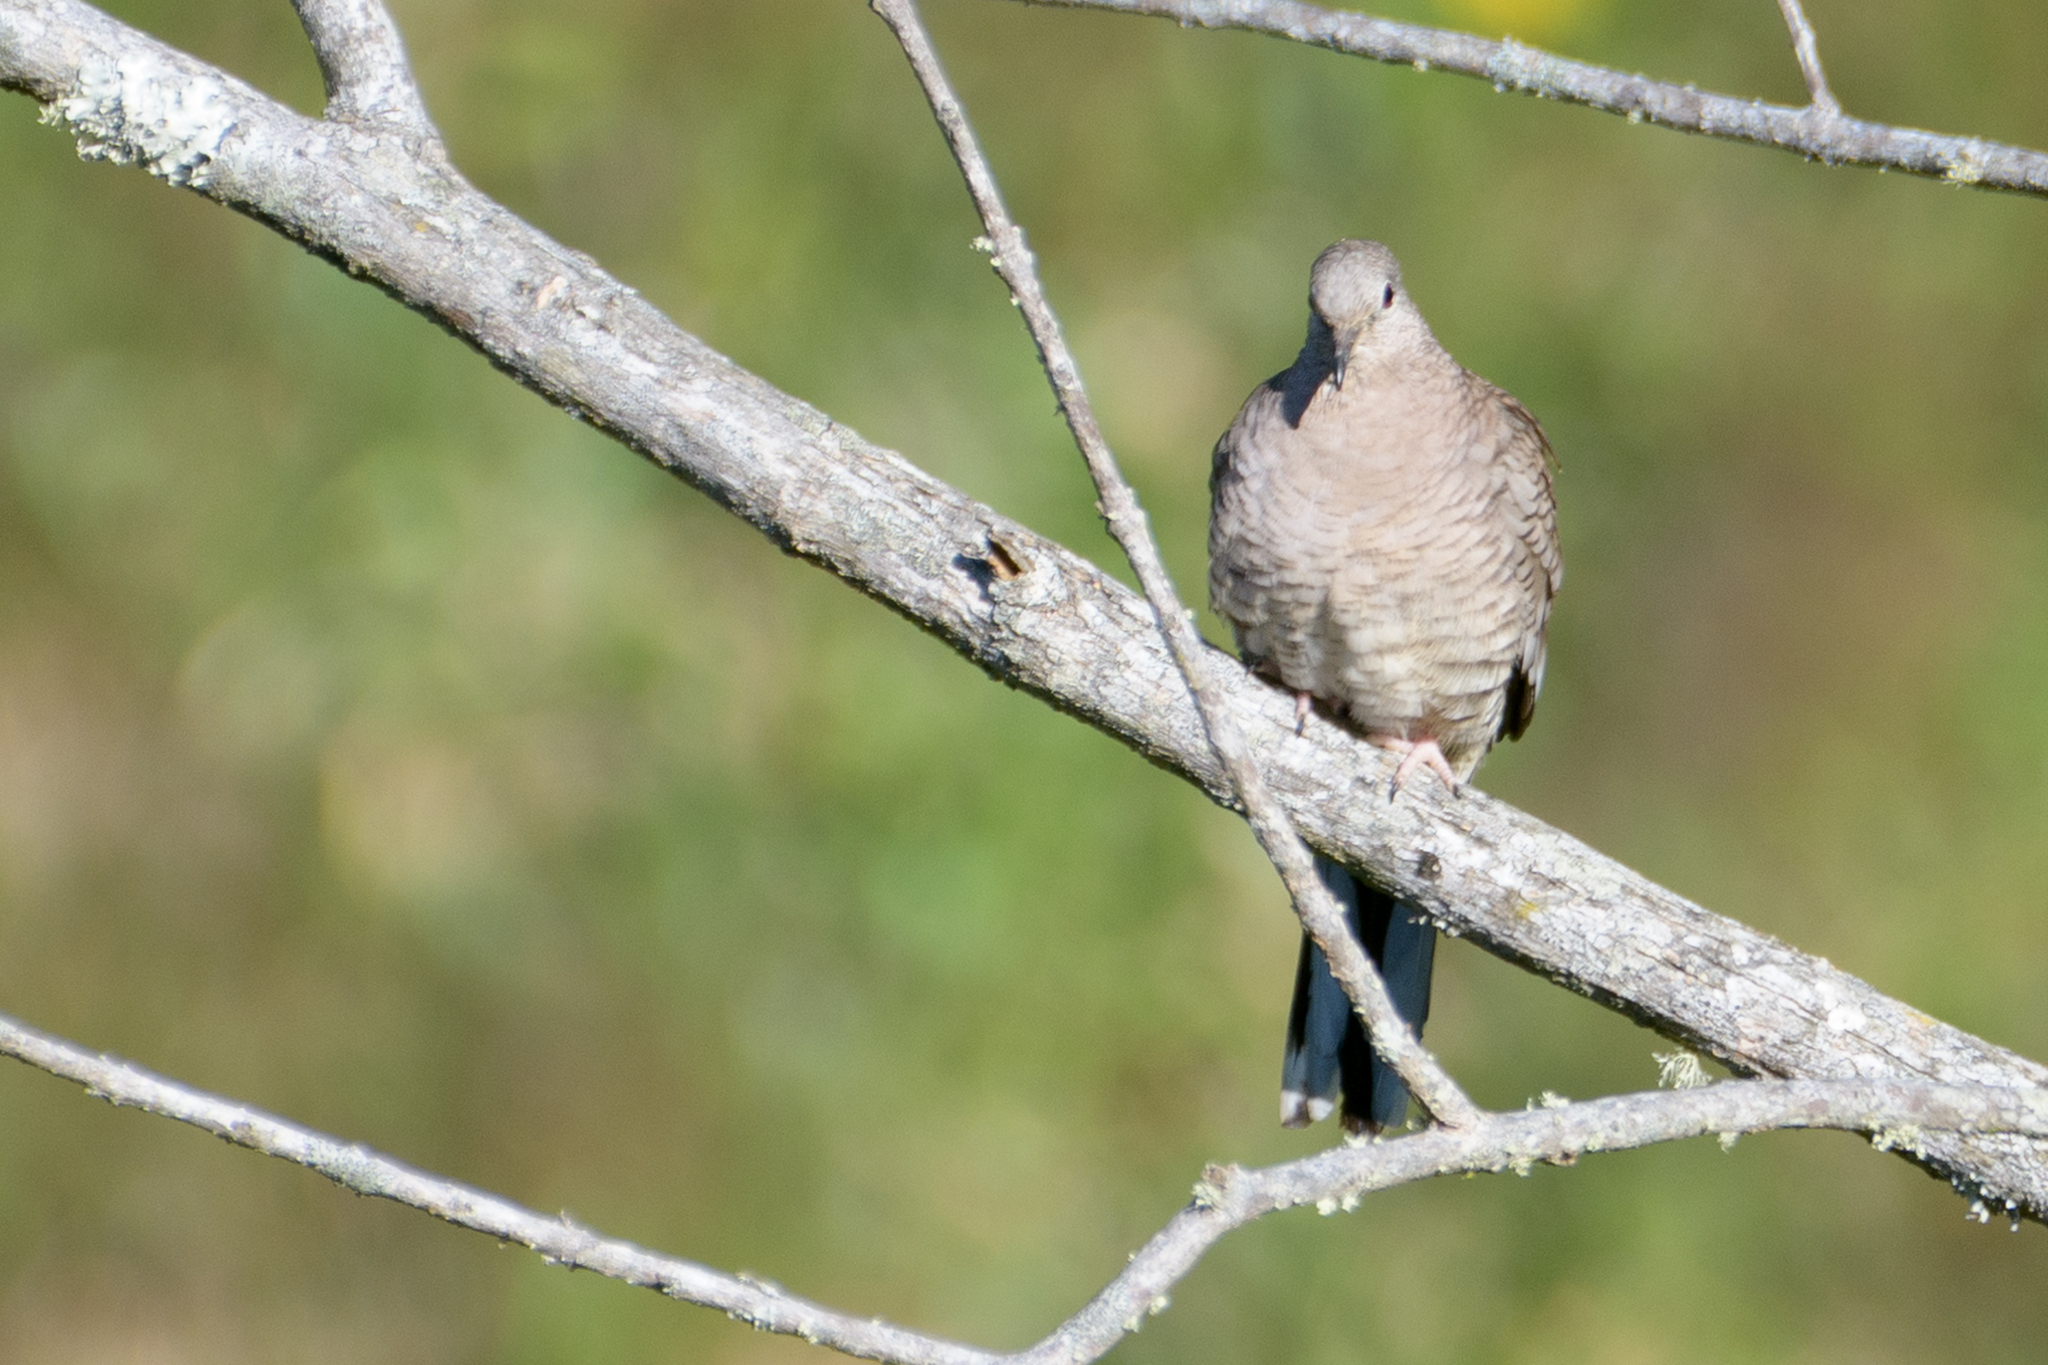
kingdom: Animalia
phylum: Chordata
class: Aves
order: Columbiformes
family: Columbidae
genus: Columbina
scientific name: Columbina inca
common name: Inca dove
